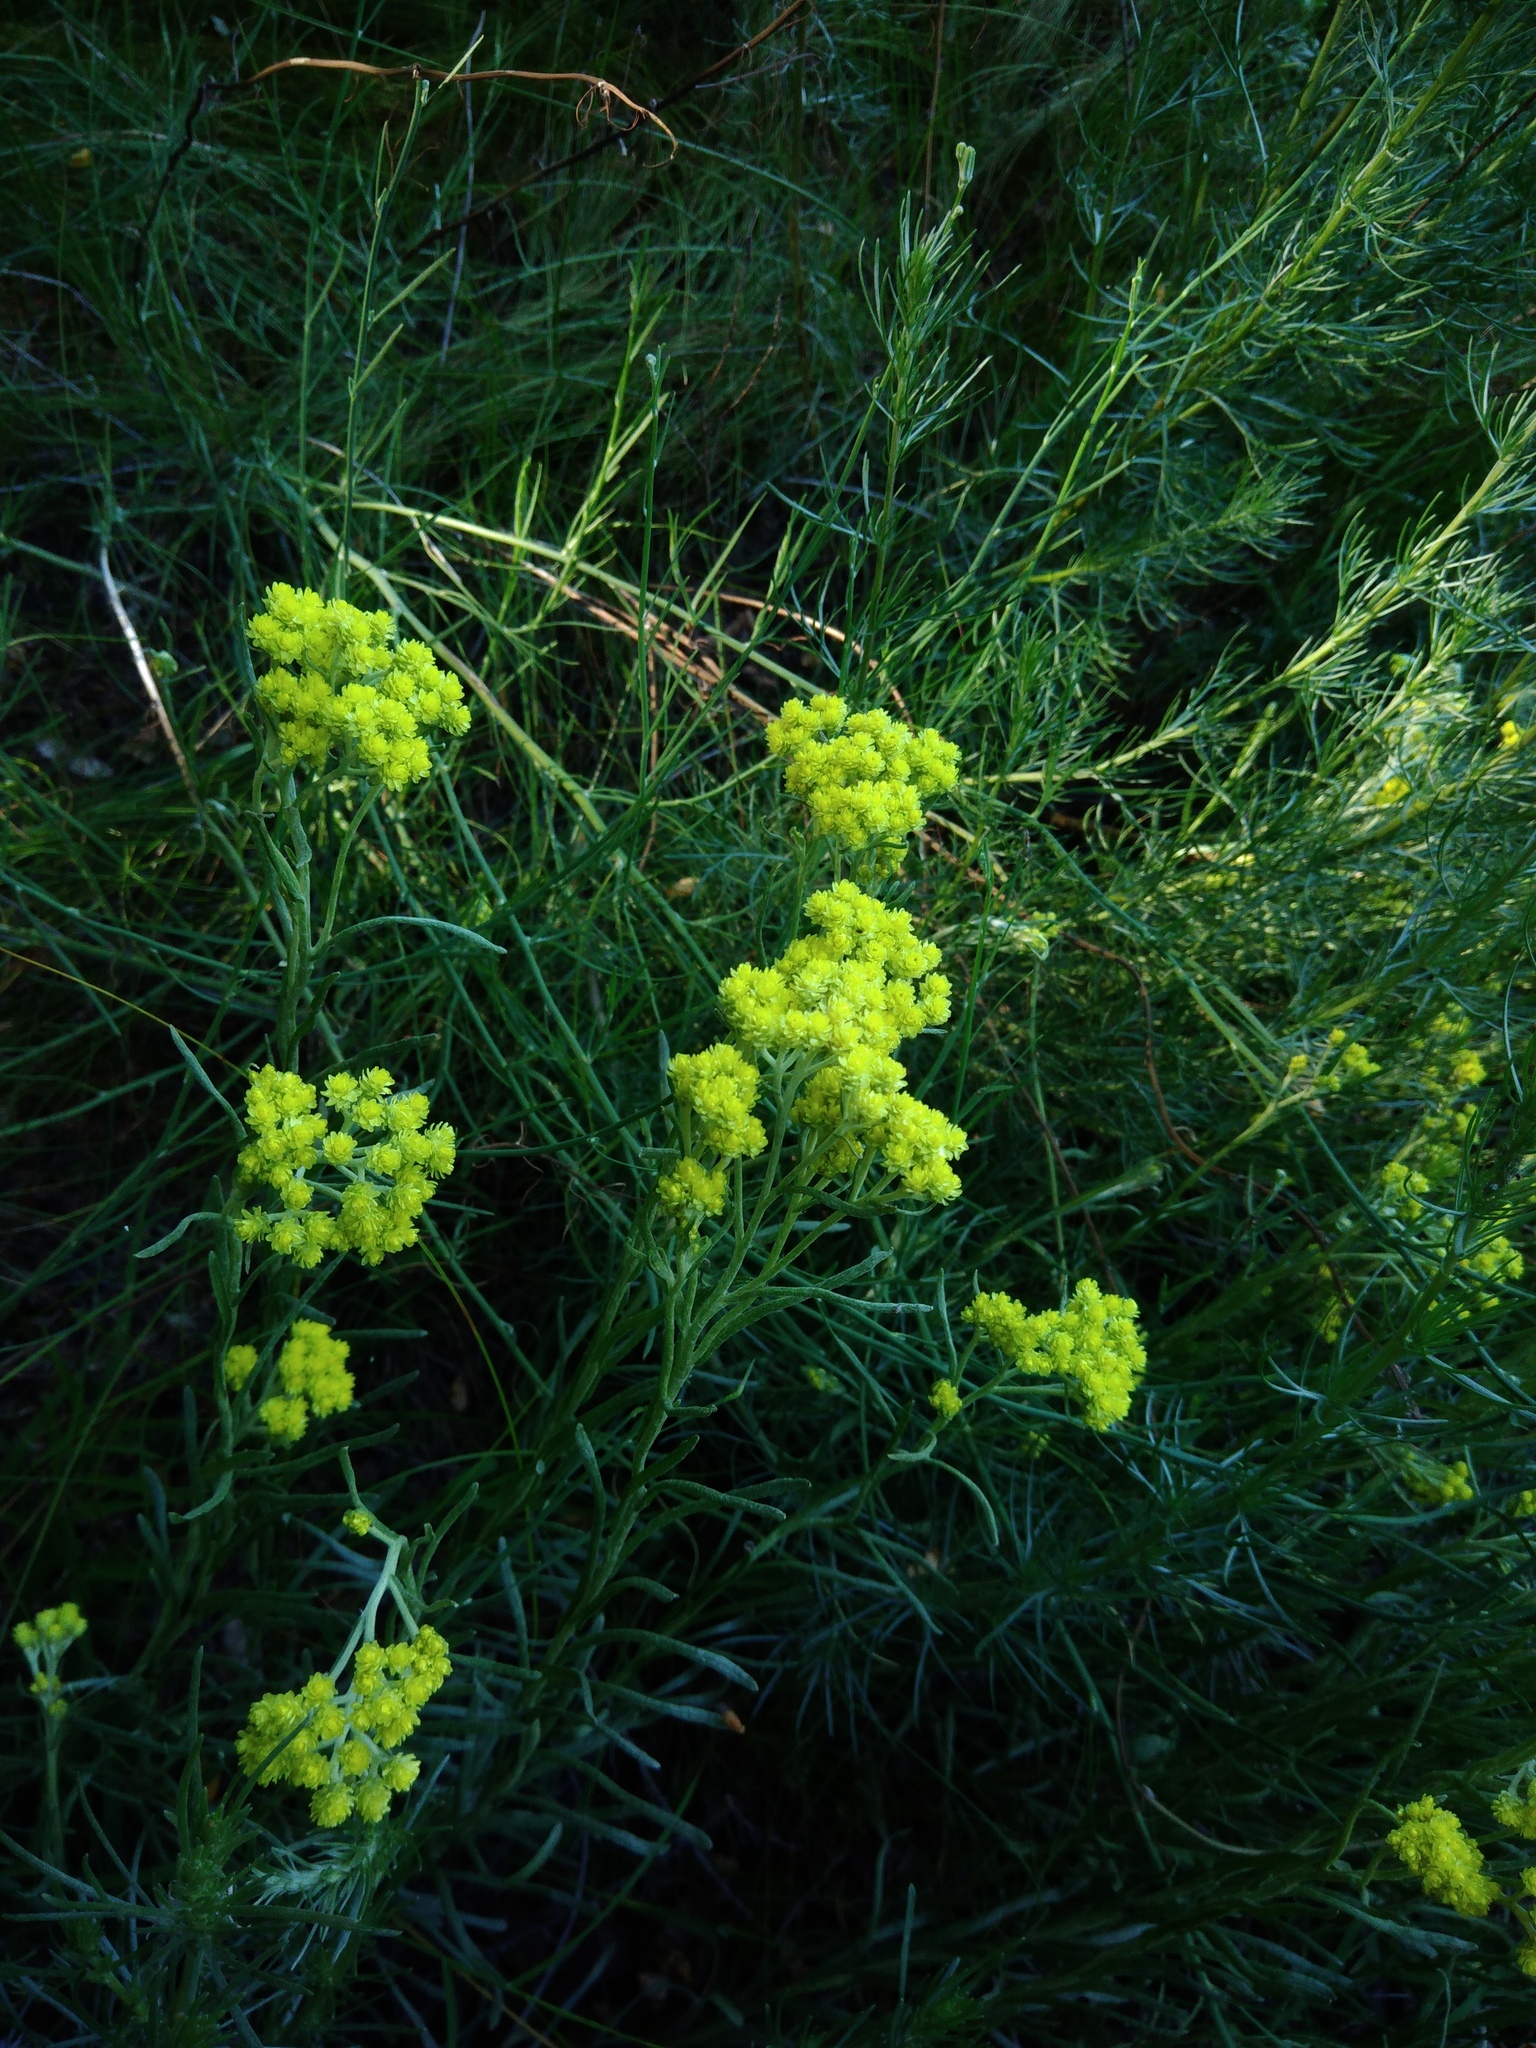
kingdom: Plantae
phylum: Tracheophyta
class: Magnoliopsida
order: Asterales
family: Asteraceae
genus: Helichrysum
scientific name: Helichrysum arenarium
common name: Strawflower
